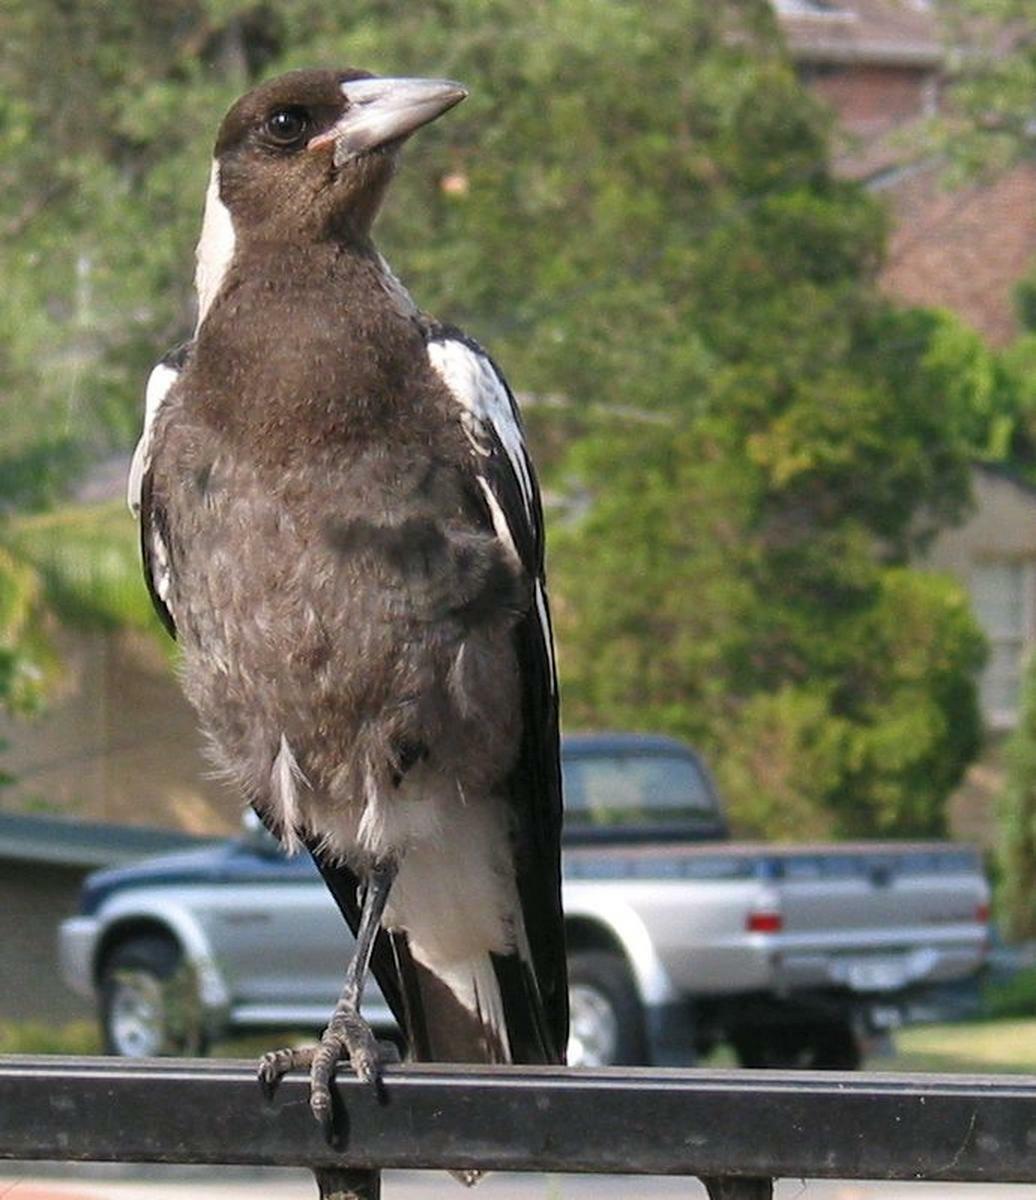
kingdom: Animalia
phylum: Chordata
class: Aves
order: Passeriformes
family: Cracticidae
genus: Gymnorhina
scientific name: Gymnorhina tibicen
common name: Australian magpie
